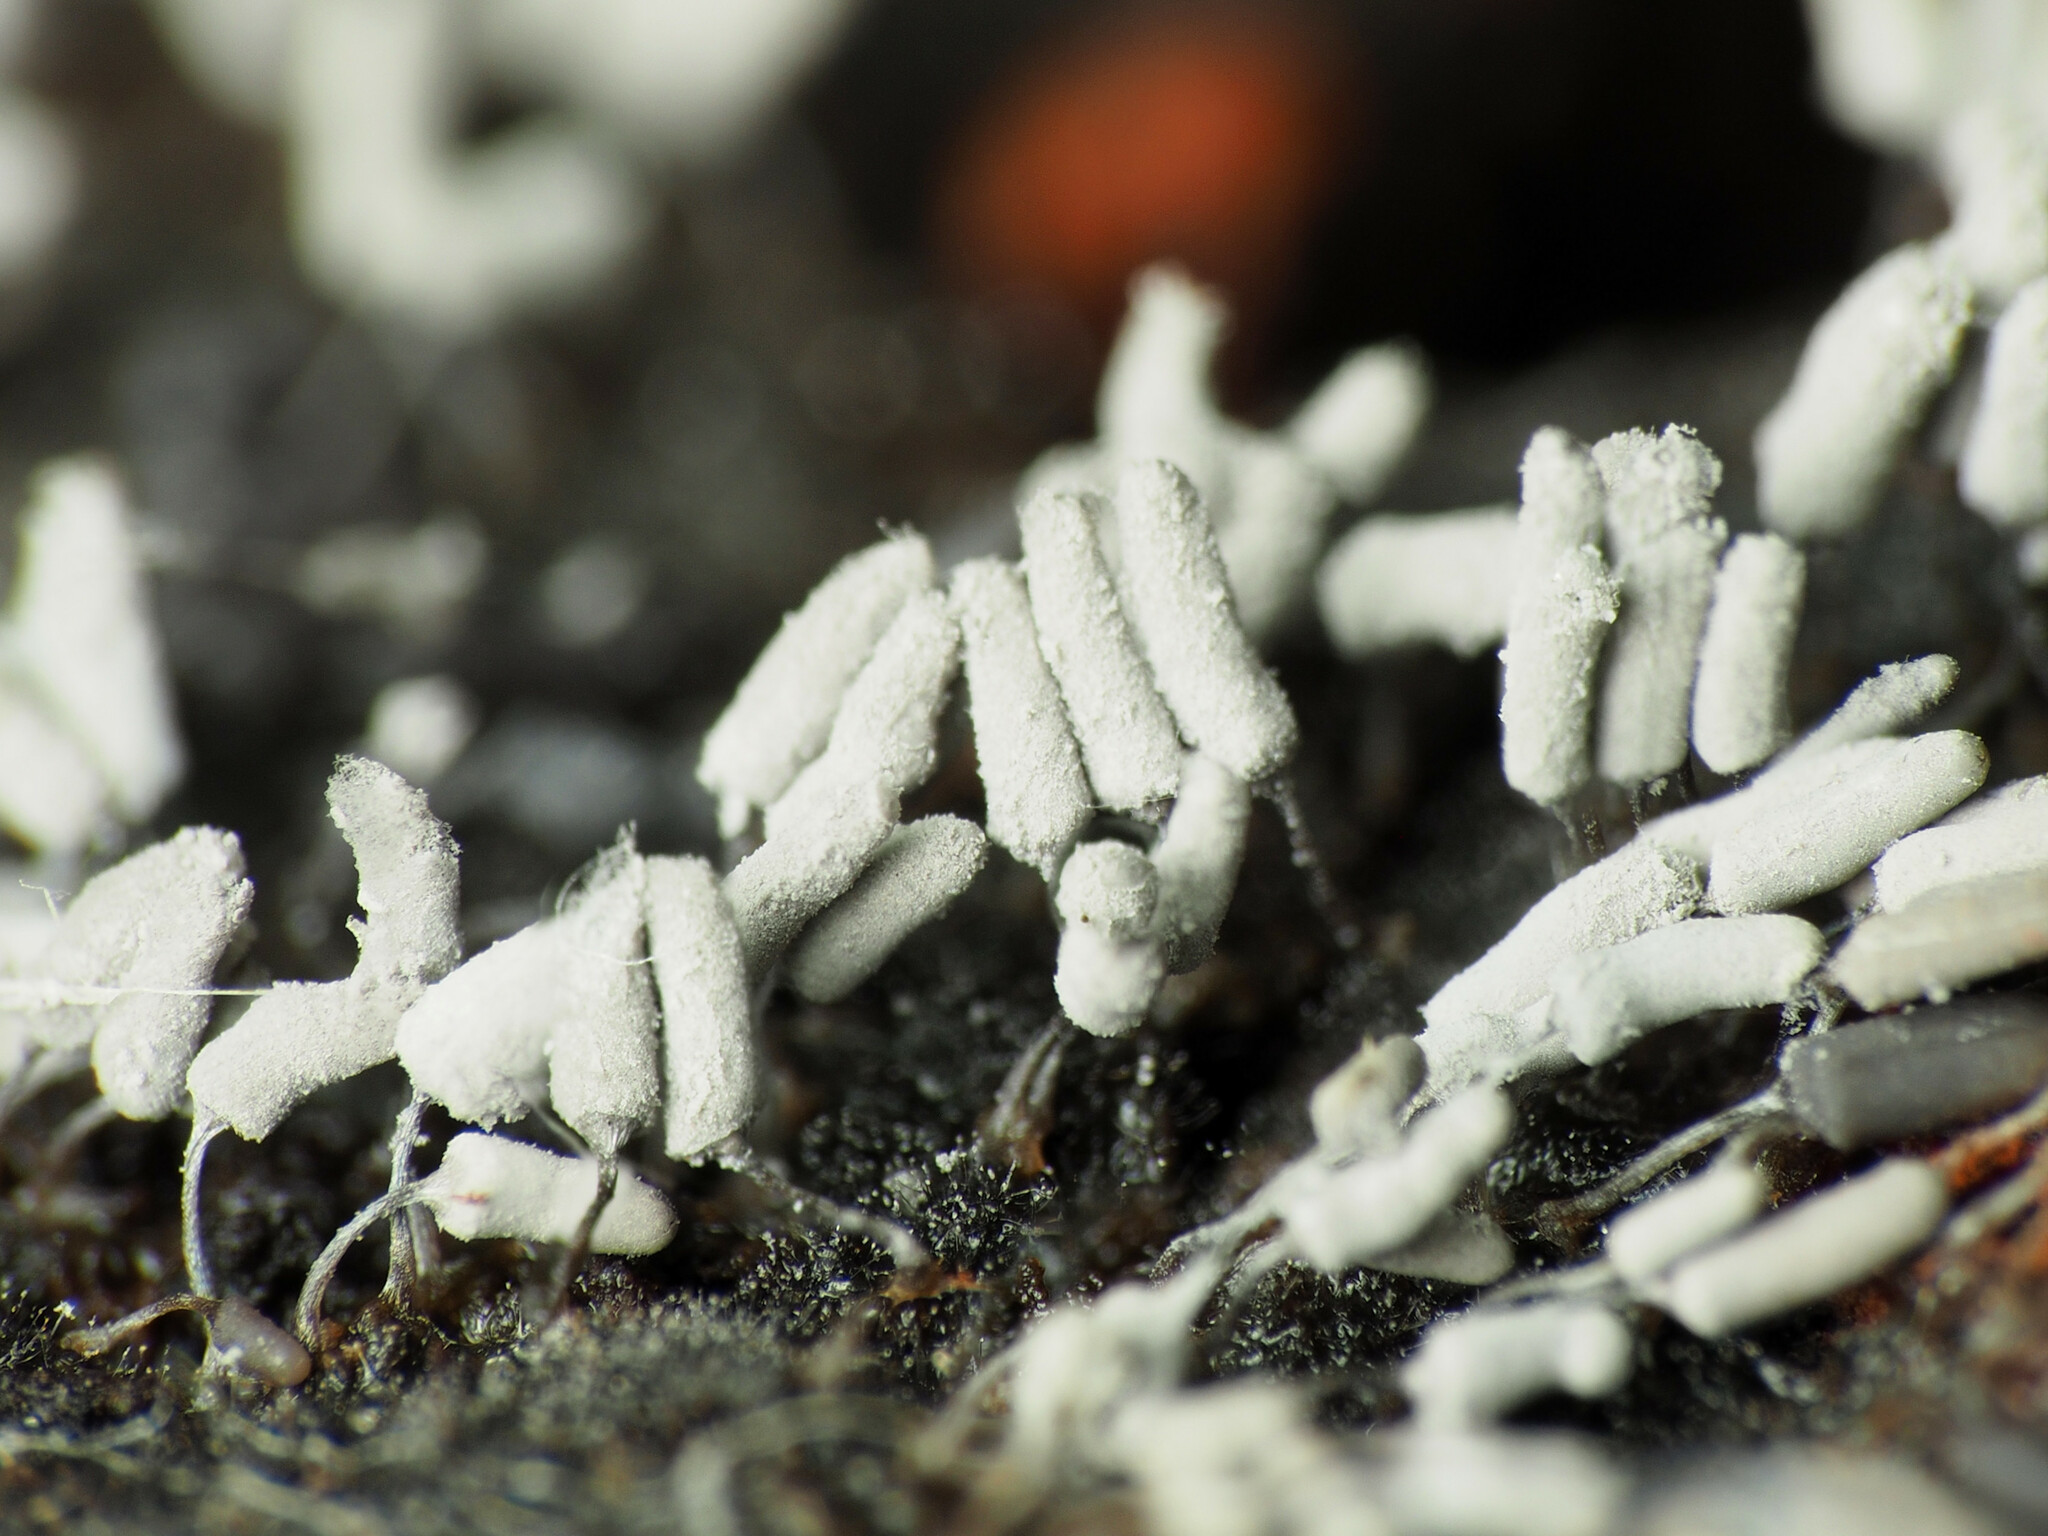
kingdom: Protozoa
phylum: Mycetozoa
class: Myxomycetes
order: Trichiales
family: Arcyriaceae
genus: Arcyria
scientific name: Arcyria cinerea
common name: White carnival candy slime mold
